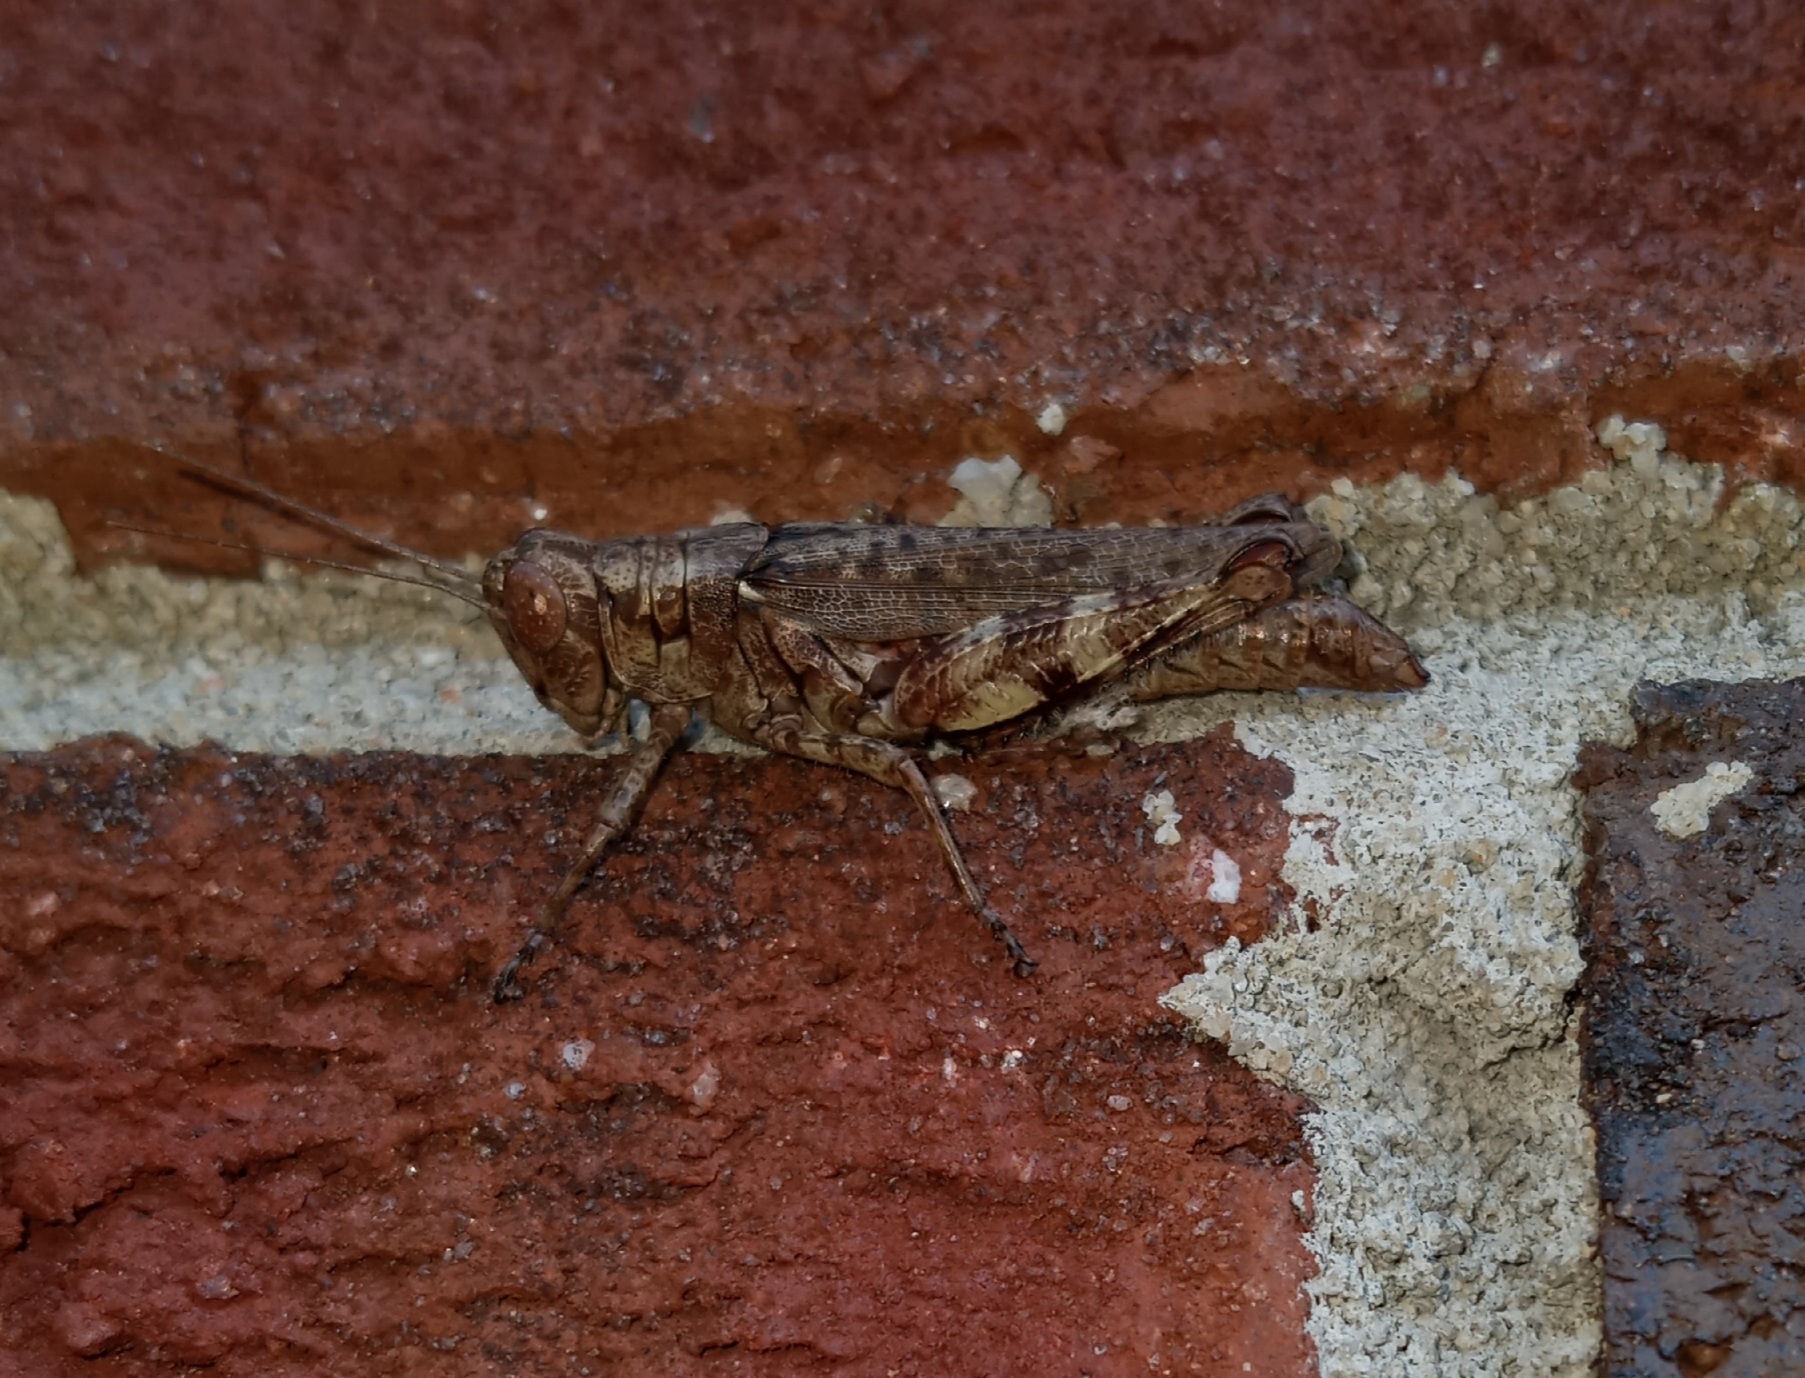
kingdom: Animalia
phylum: Arthropoda
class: Insecta
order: Orthoptera
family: Acrididae
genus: Melanoplus
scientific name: Melanoplus punctulatus
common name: Pine-tree spur-throat grasshopper
